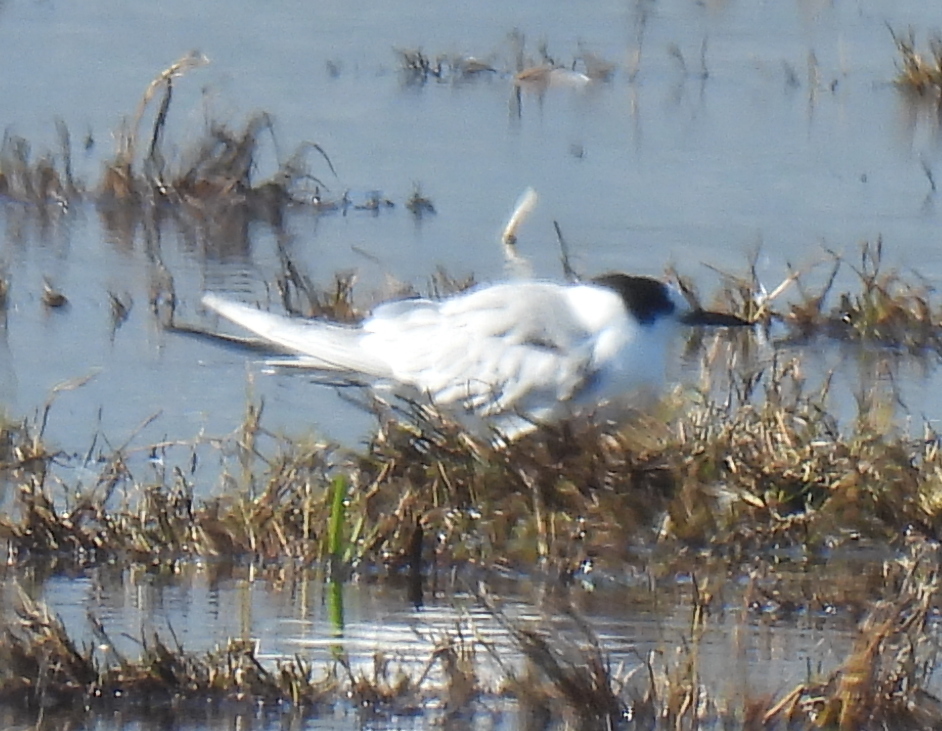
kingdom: Animalia
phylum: Chordata
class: Aves
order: Charadriiformes
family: Laridae
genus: Sterna
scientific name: Sterna hirundo
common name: Common tern
